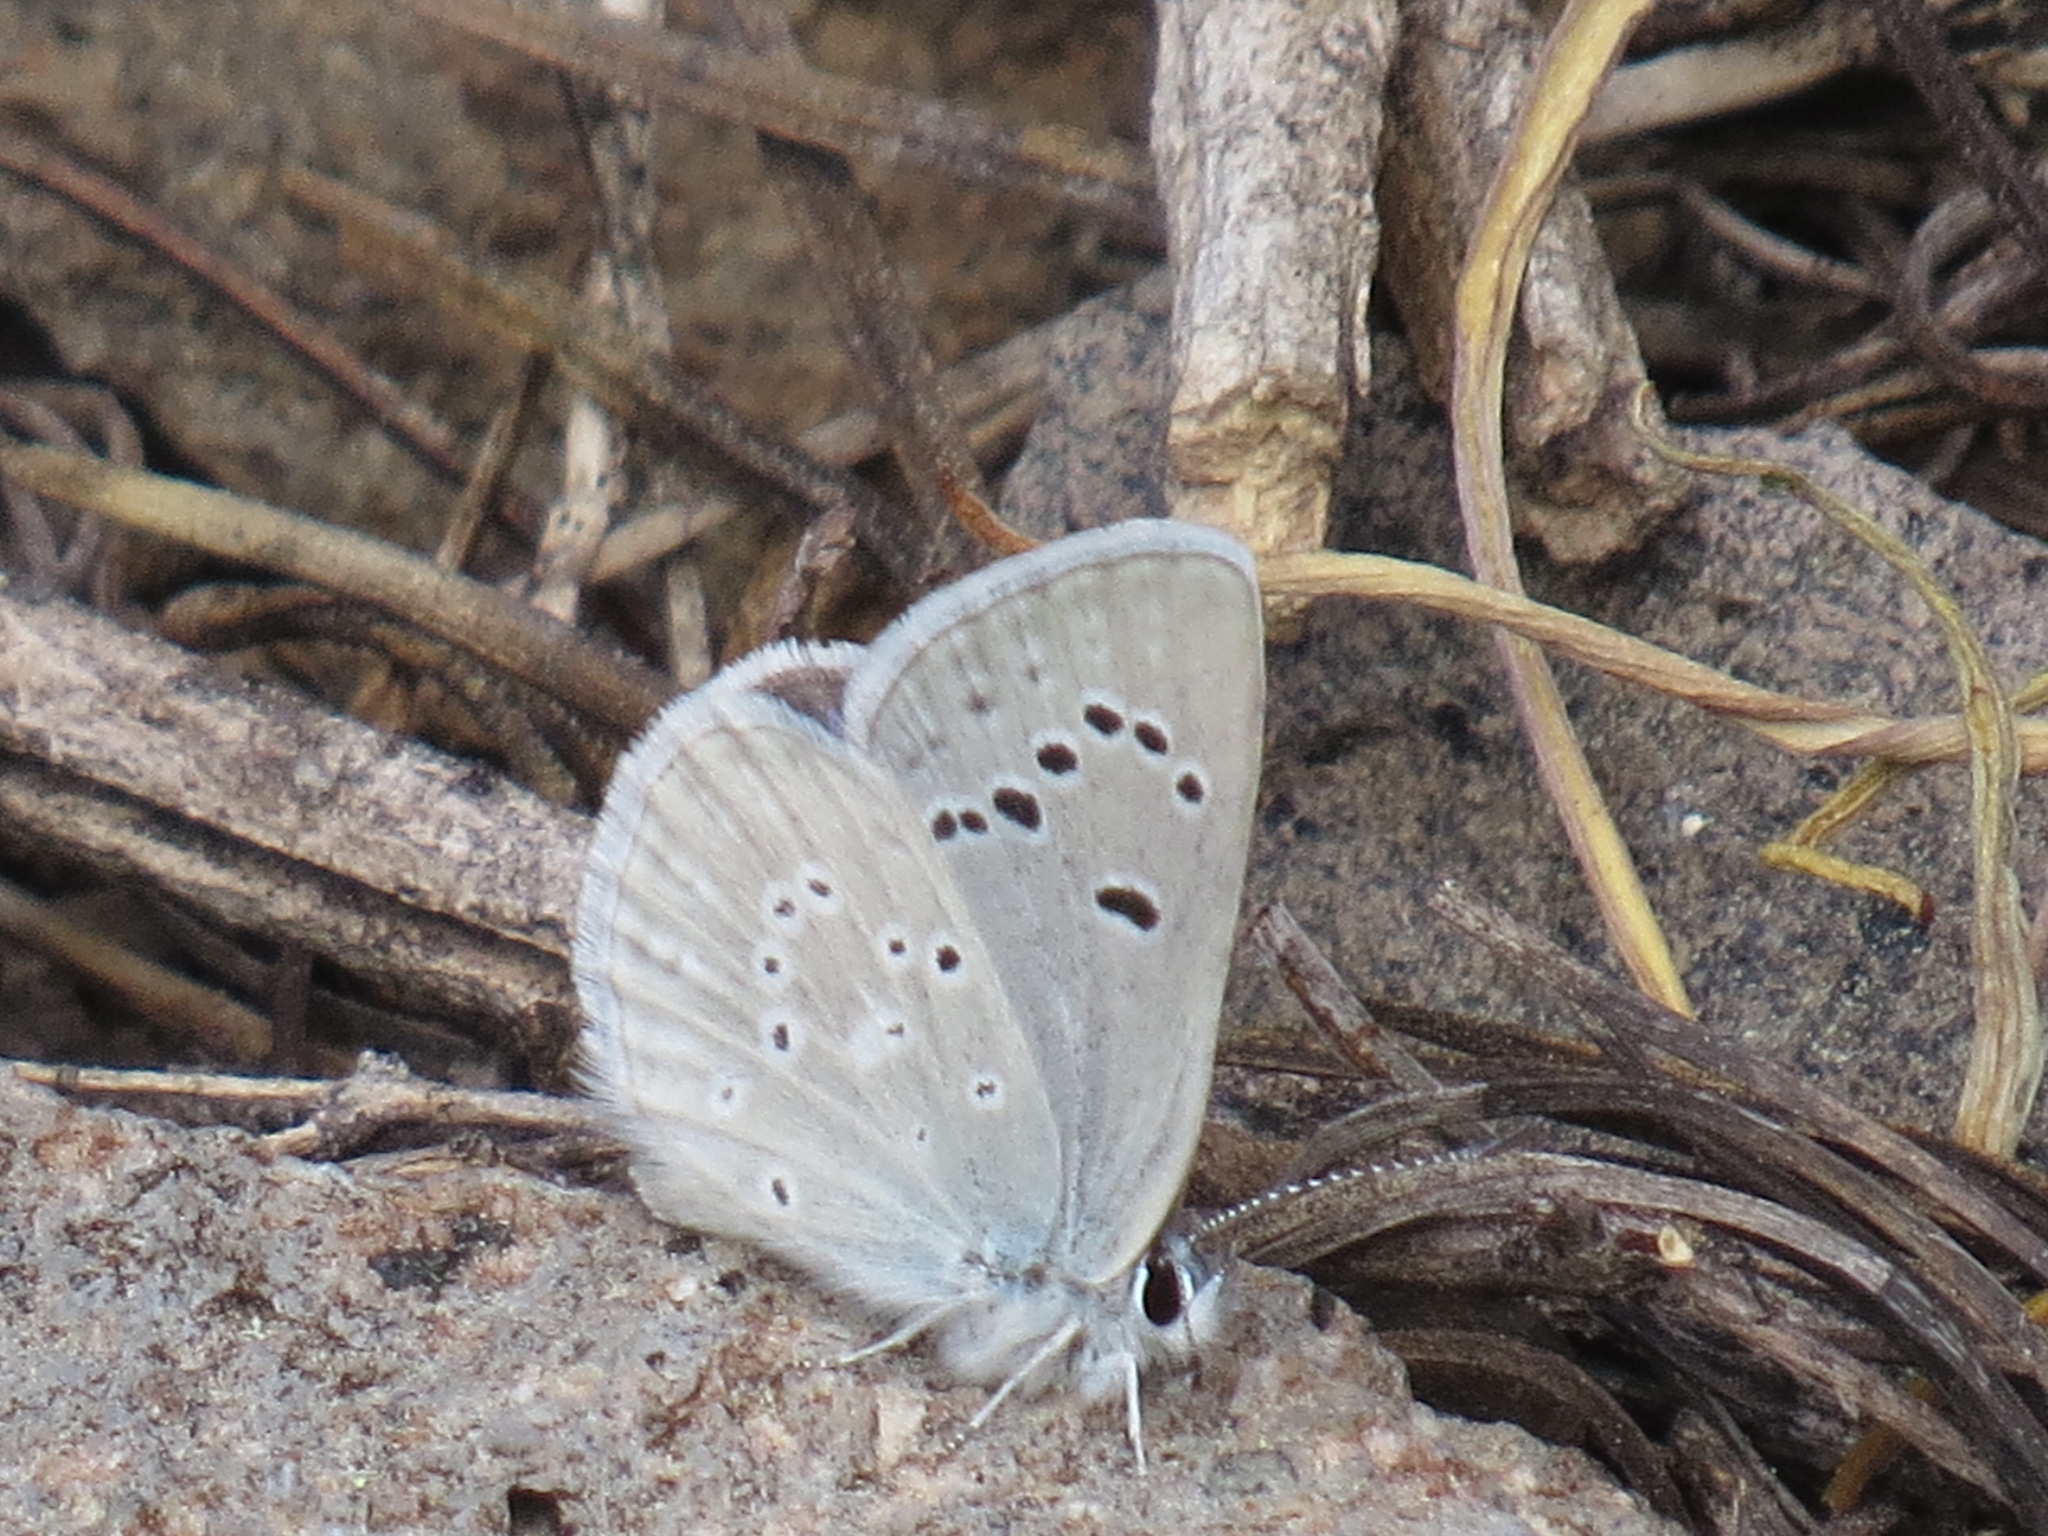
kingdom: Animalia
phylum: Arthropoda
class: Insecta
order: Lepidoptera
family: Lycaenidae
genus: Icaricia
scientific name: Icaricia icarioides
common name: Boisduval's blue
